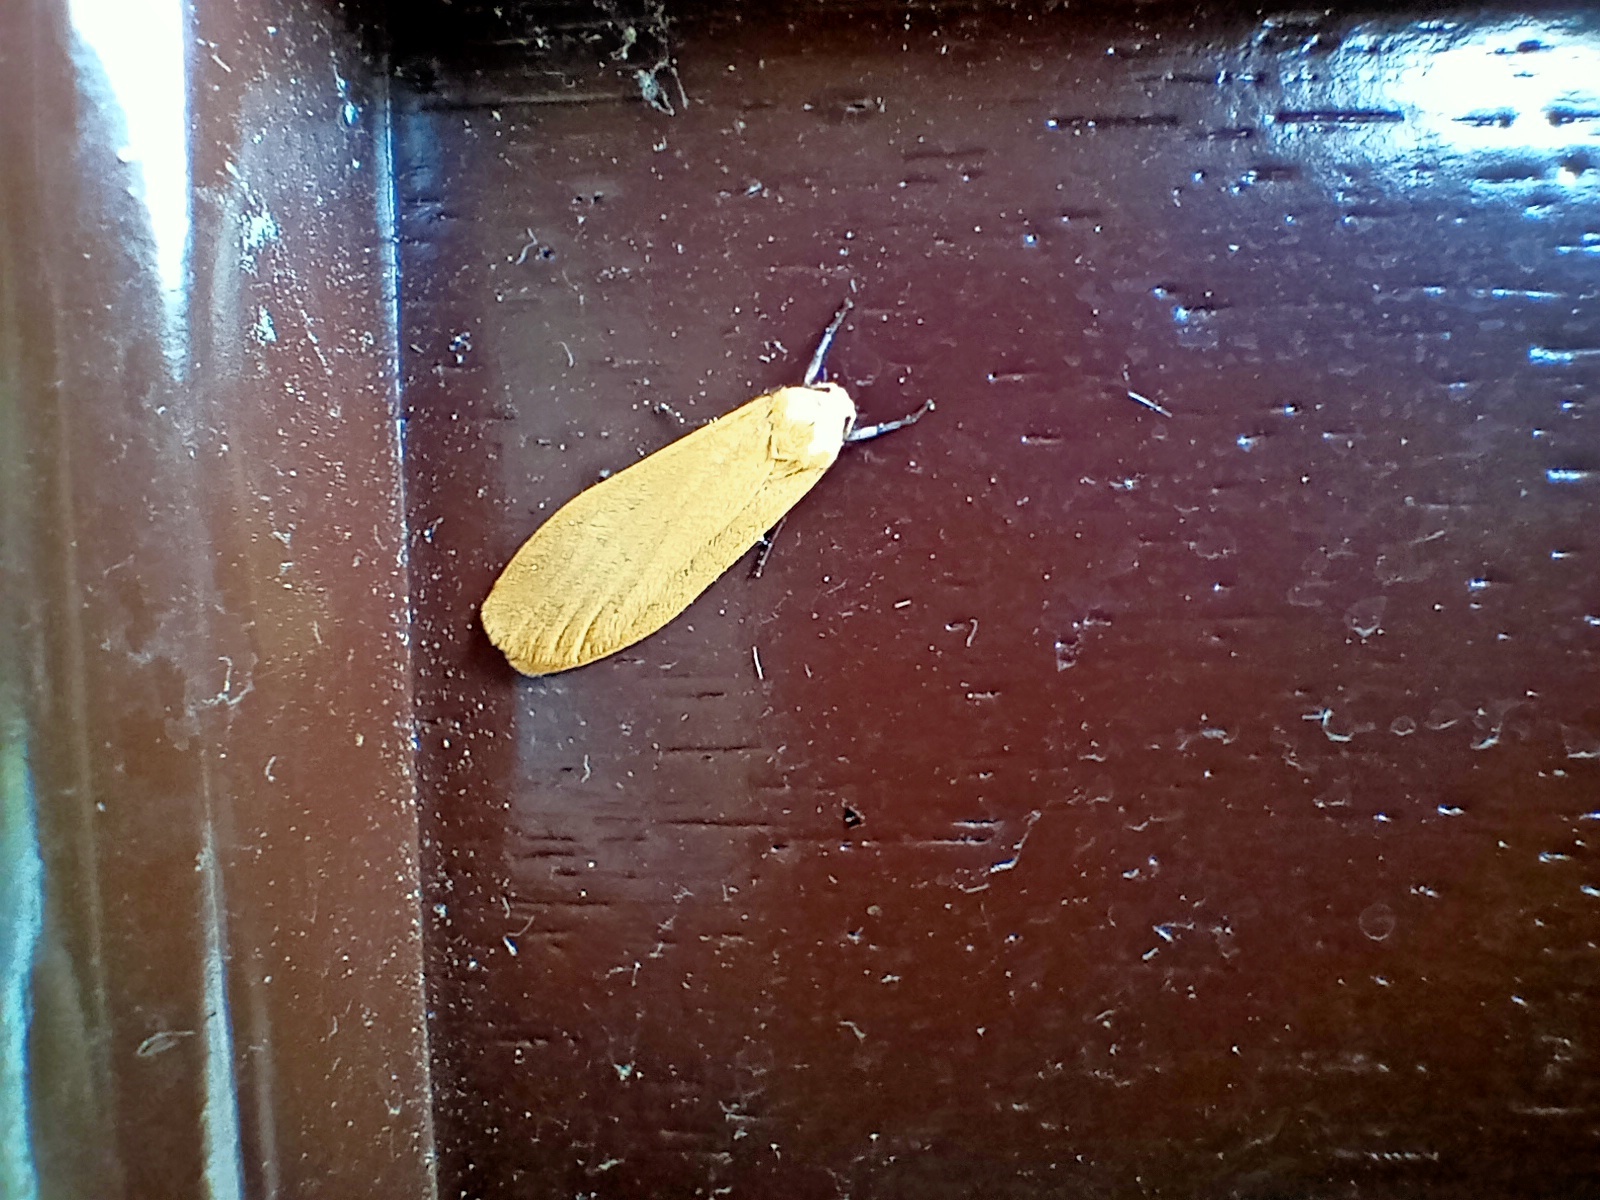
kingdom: Animalia
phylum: Arthropoda
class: Insecta
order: Lepidoptera
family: Erebidae
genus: Wittia
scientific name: Wittia sororcula
